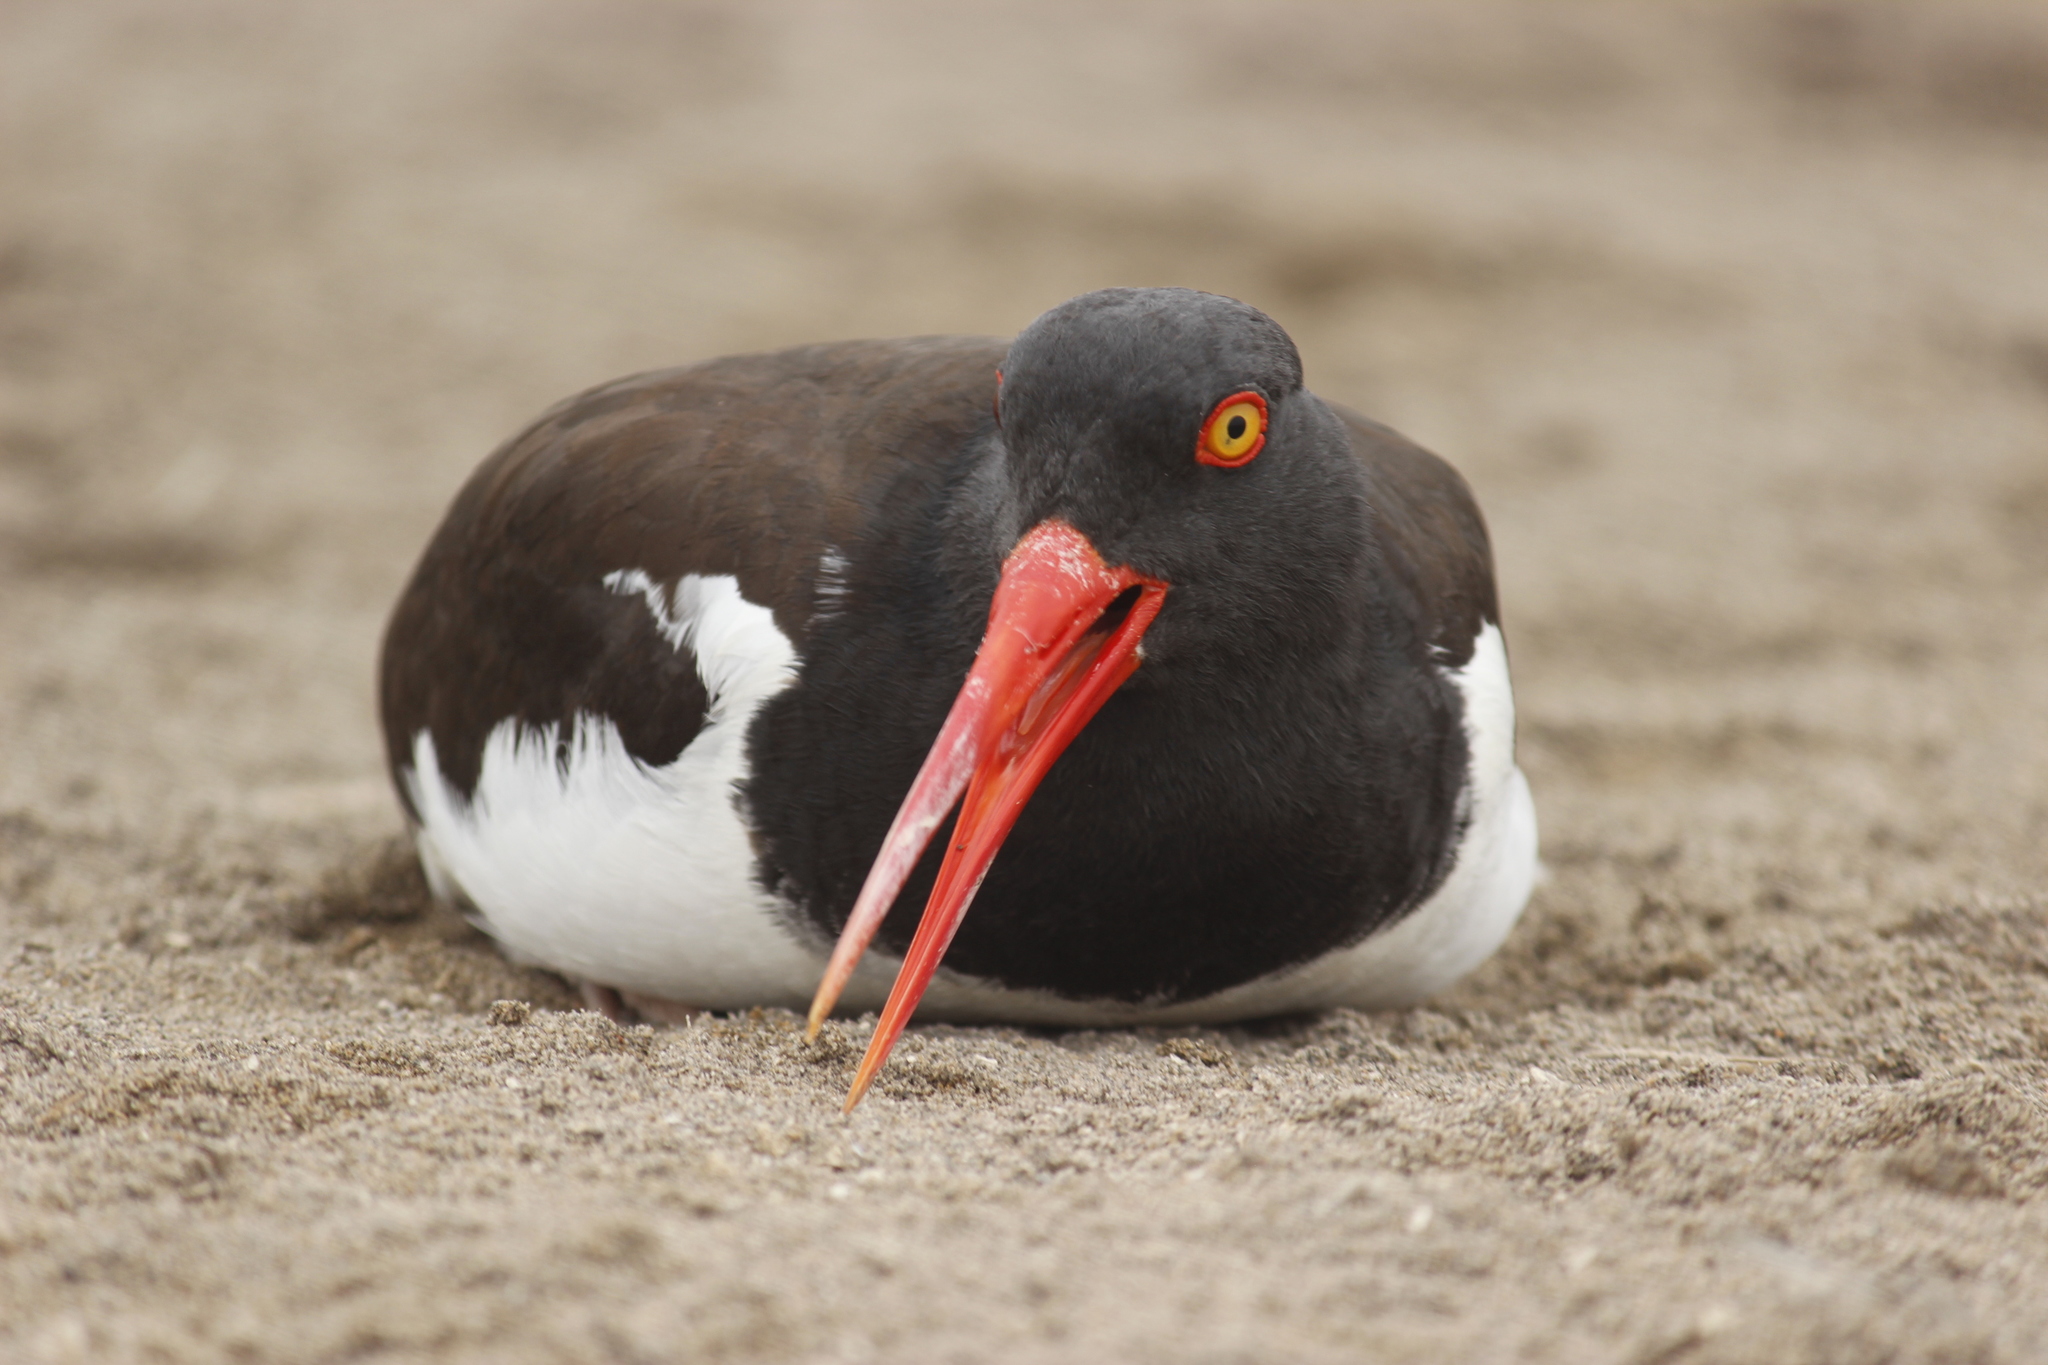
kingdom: Animalia
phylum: Chordata
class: Aves
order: Charadriiformes
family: Haematopodidae
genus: Haematopus
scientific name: Haematopus palliatus
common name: American oystercatcher
